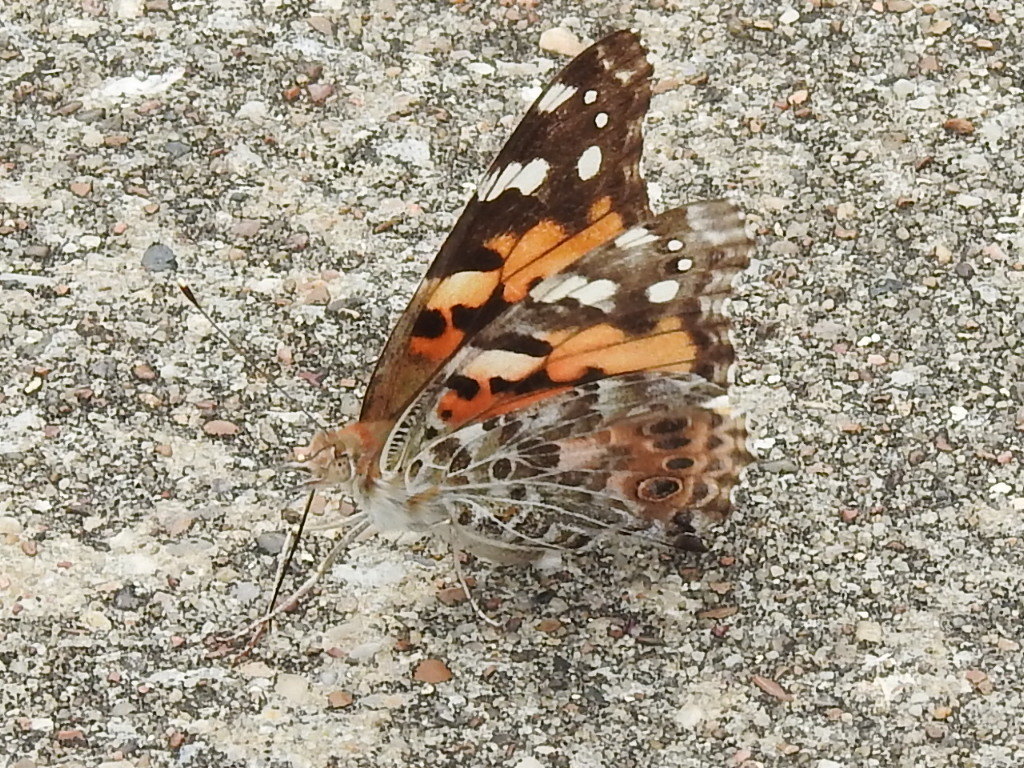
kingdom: Animalia
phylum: Arthropoda
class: Insecta
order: Lepidoptera
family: Nymphalidae
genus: Vanessa
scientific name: Vanessa cardui
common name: Painted lady
